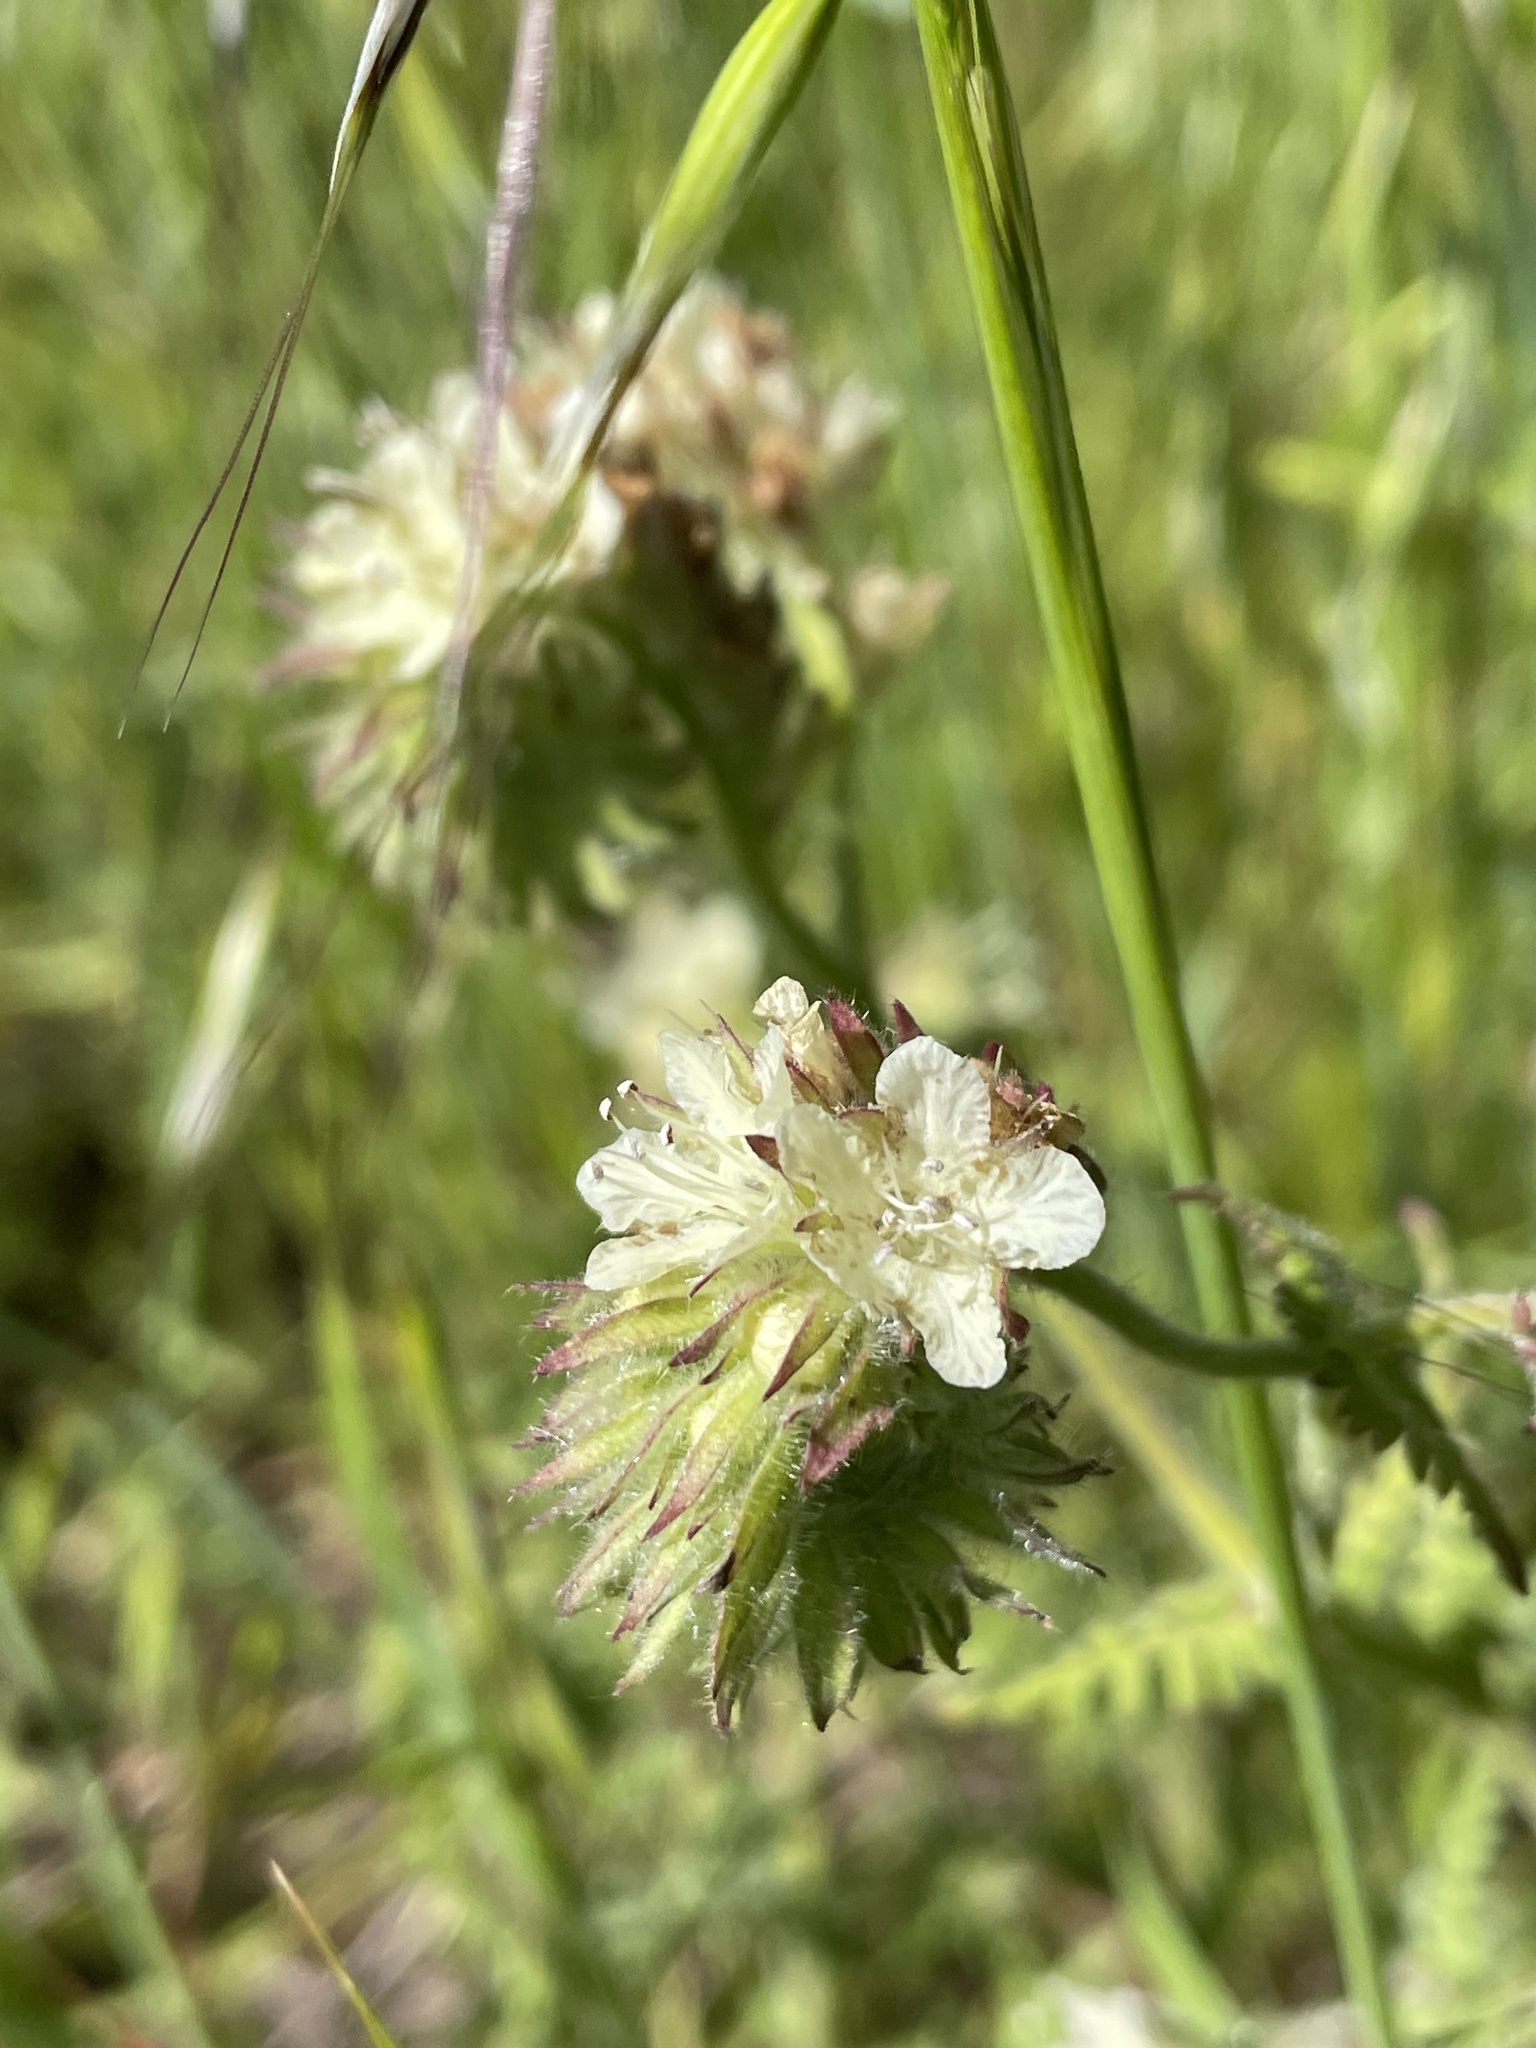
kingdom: Plantae
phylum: Tracheophyta
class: Magnoliopsida
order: Boraginales
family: Hydrophyllaceae
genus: Phacelia
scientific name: Phacelia distans
